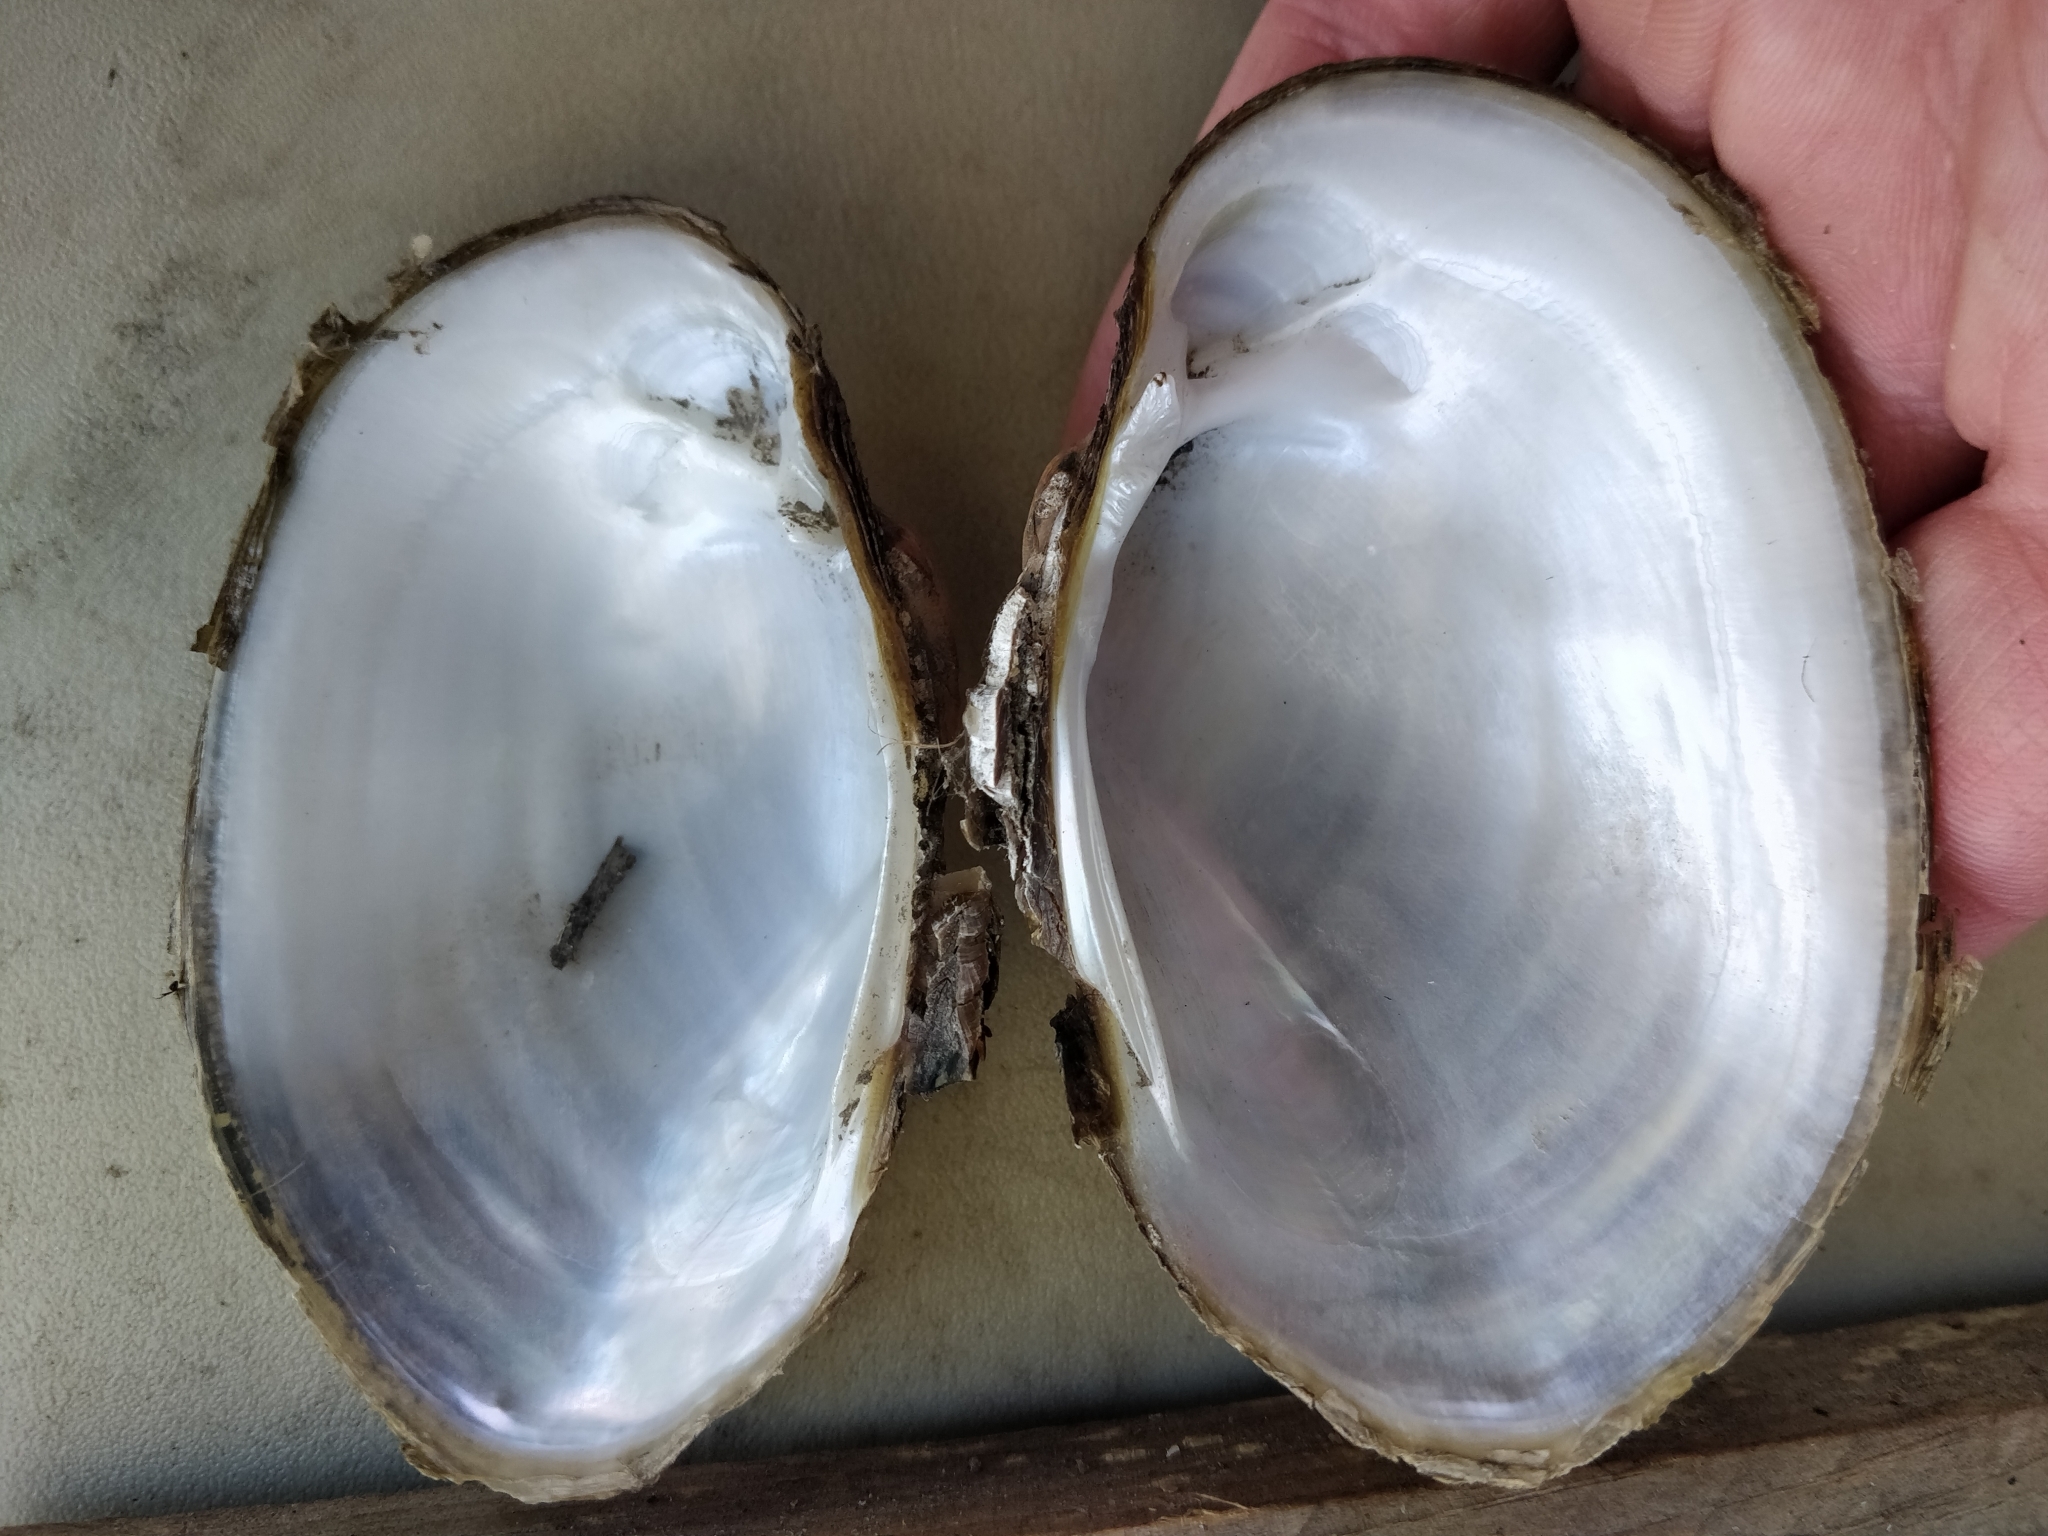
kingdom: Animalia
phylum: Mollusca
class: Bivalvia
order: Unionida
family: Unionidae
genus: Lampsilis
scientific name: Lampsilis cardium
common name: Plain pocketbook
